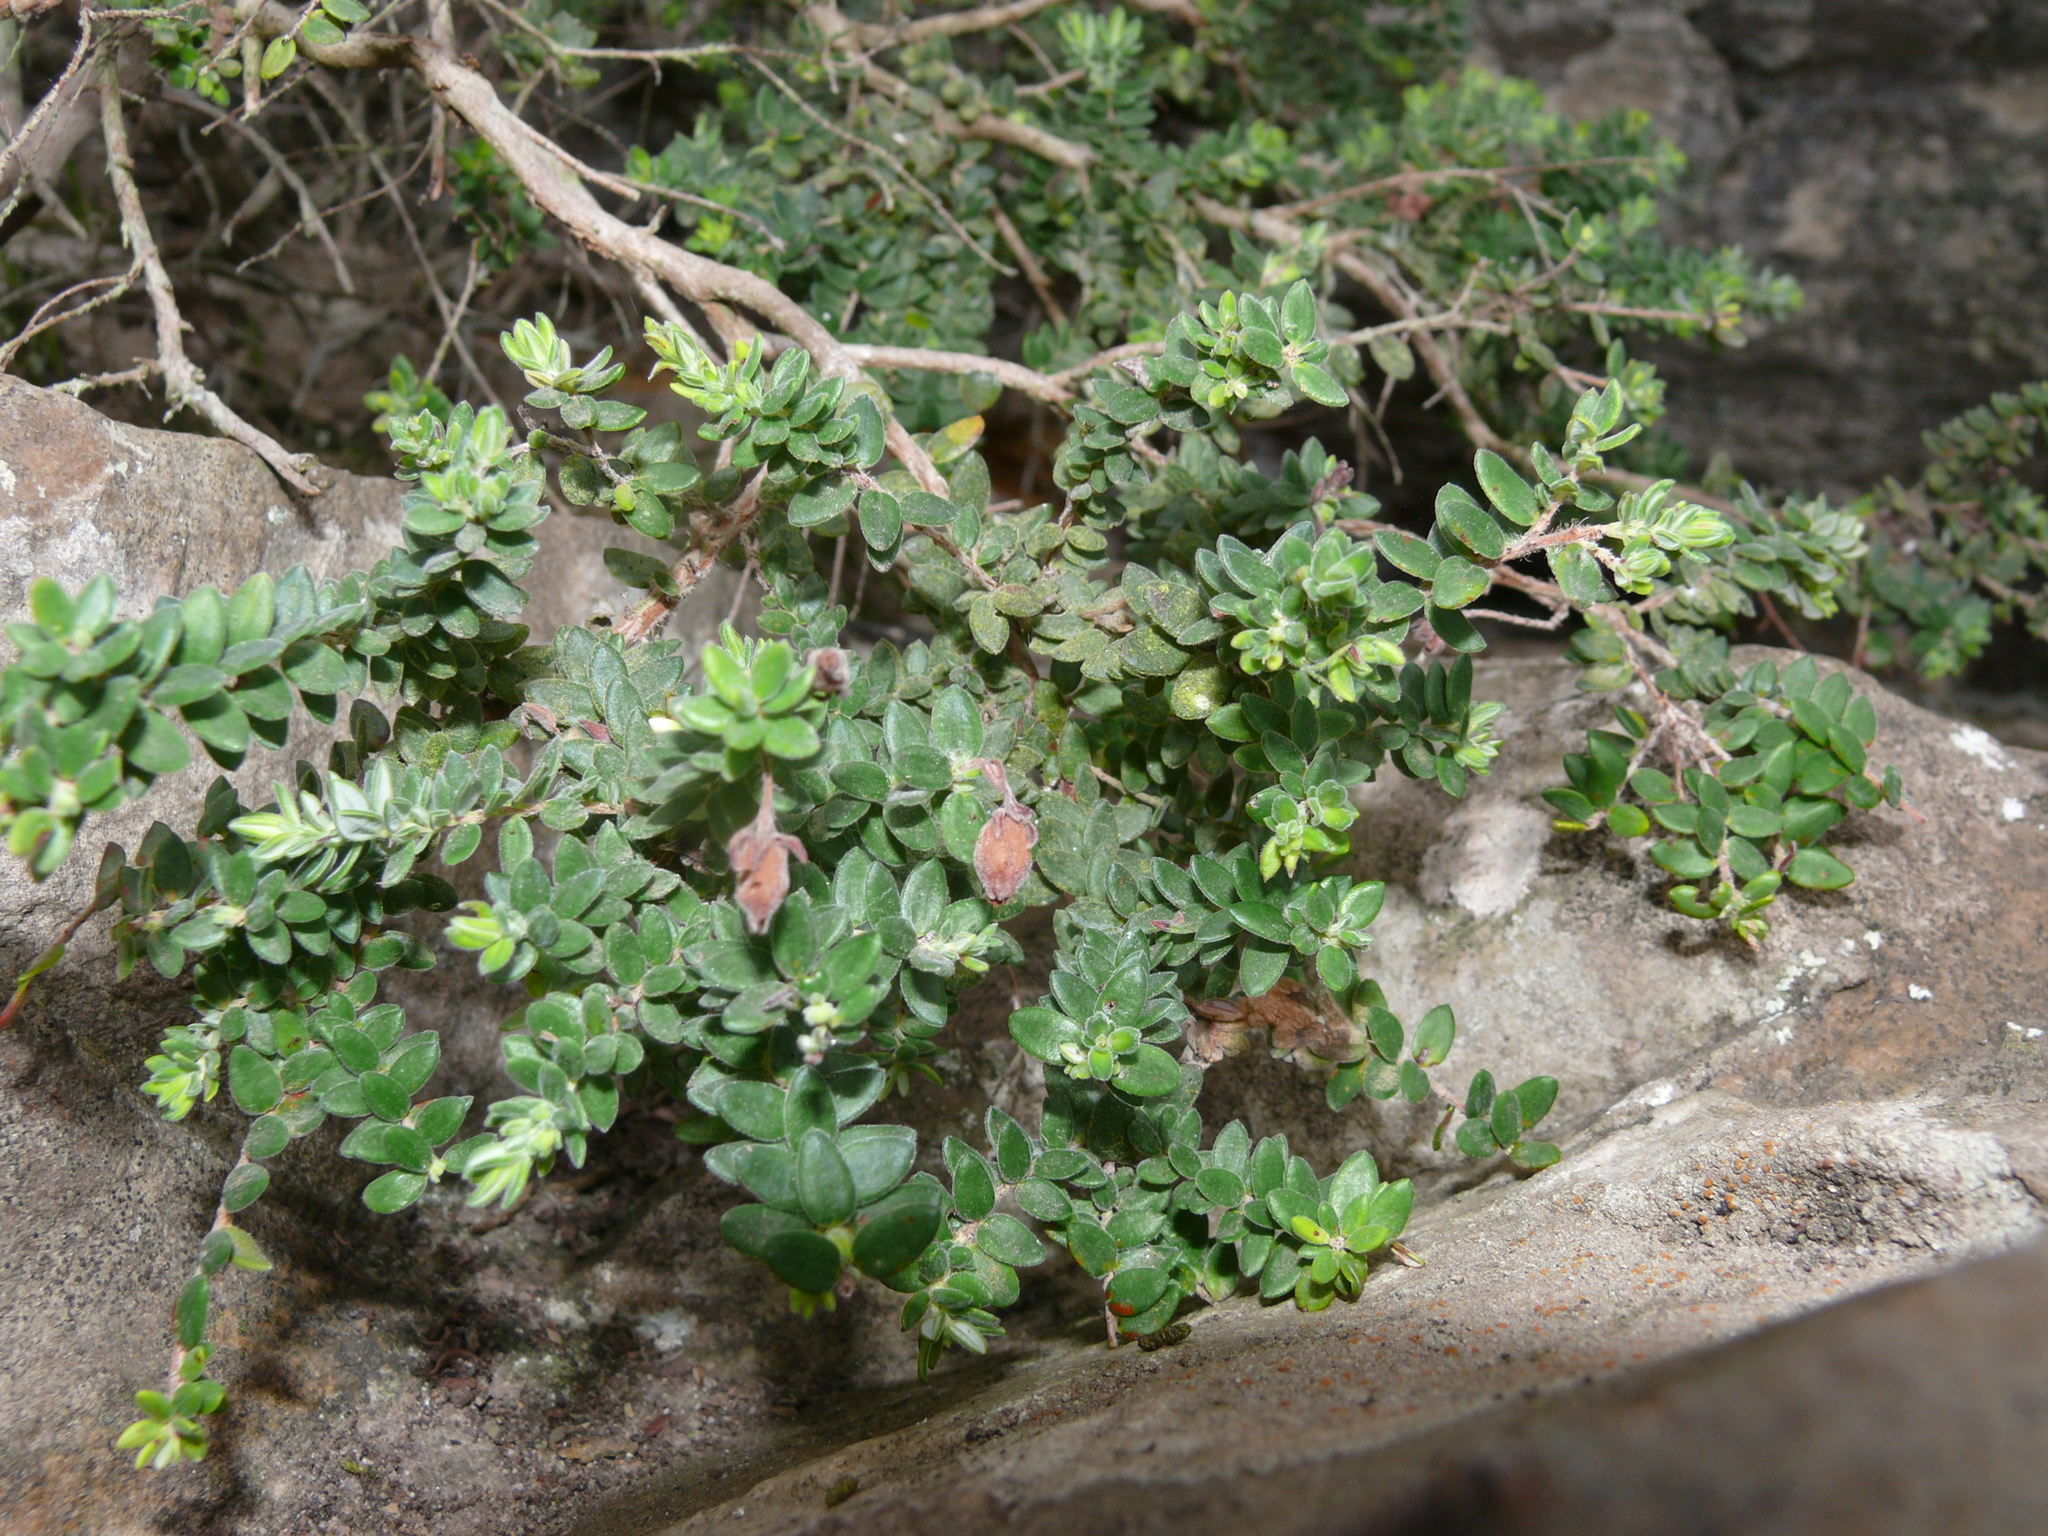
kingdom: Plantae
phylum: Tracheophyta
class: Magnoliopsida
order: Ericales
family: Ericaceae
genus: Erica
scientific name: Erica marifolia
